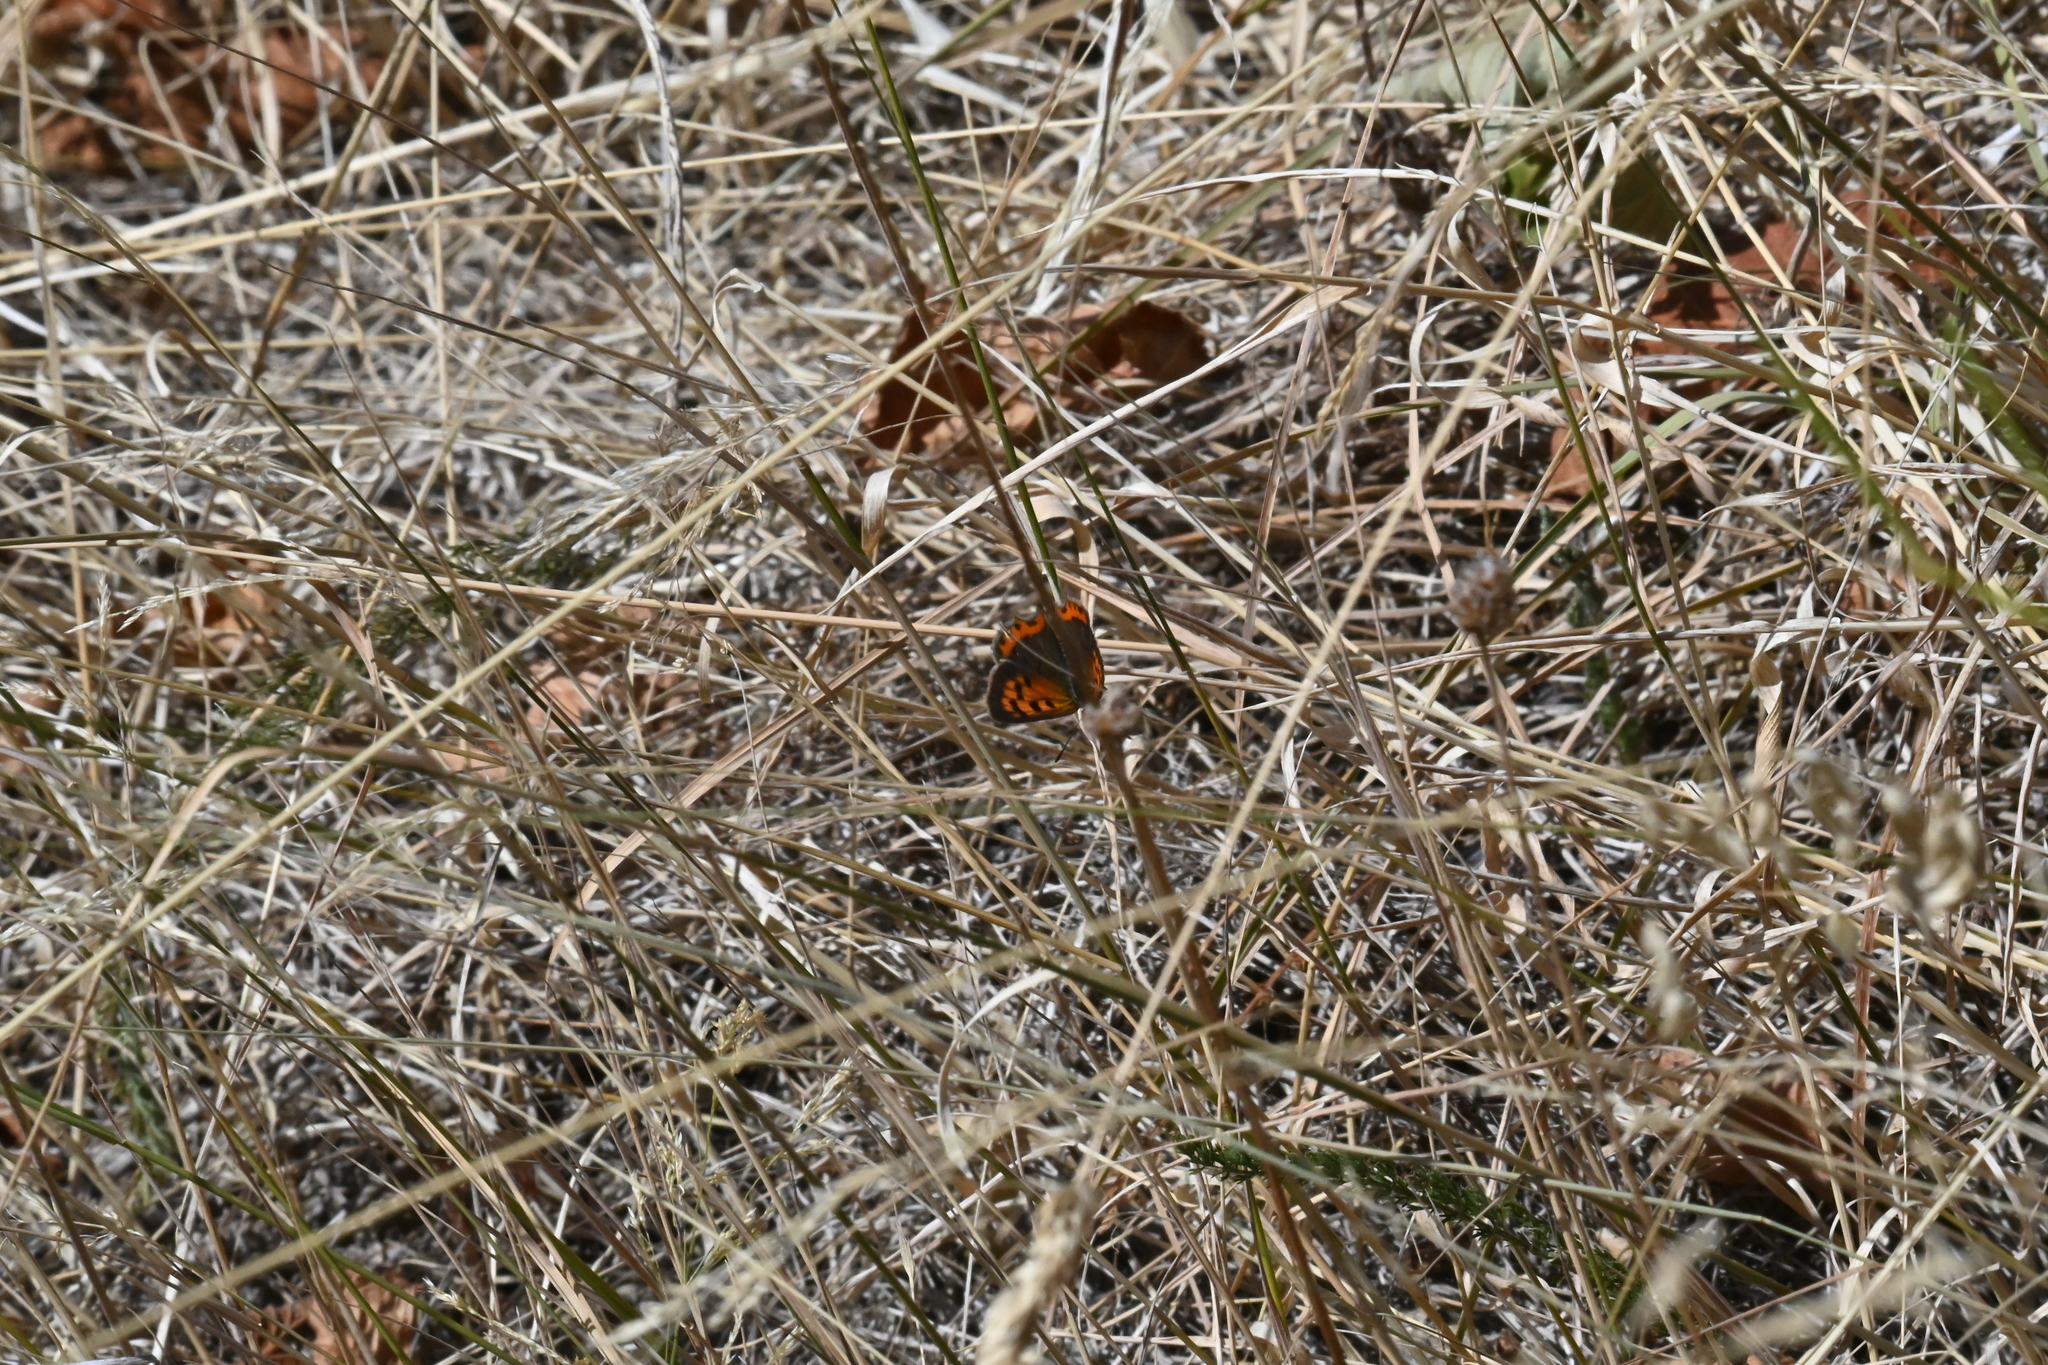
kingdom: Animalia
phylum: Arthropoda
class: Insecta
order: Lepidoptera
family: Lycaenidae
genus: Lycaena
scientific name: Lycaena phlaeas
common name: Small copper
